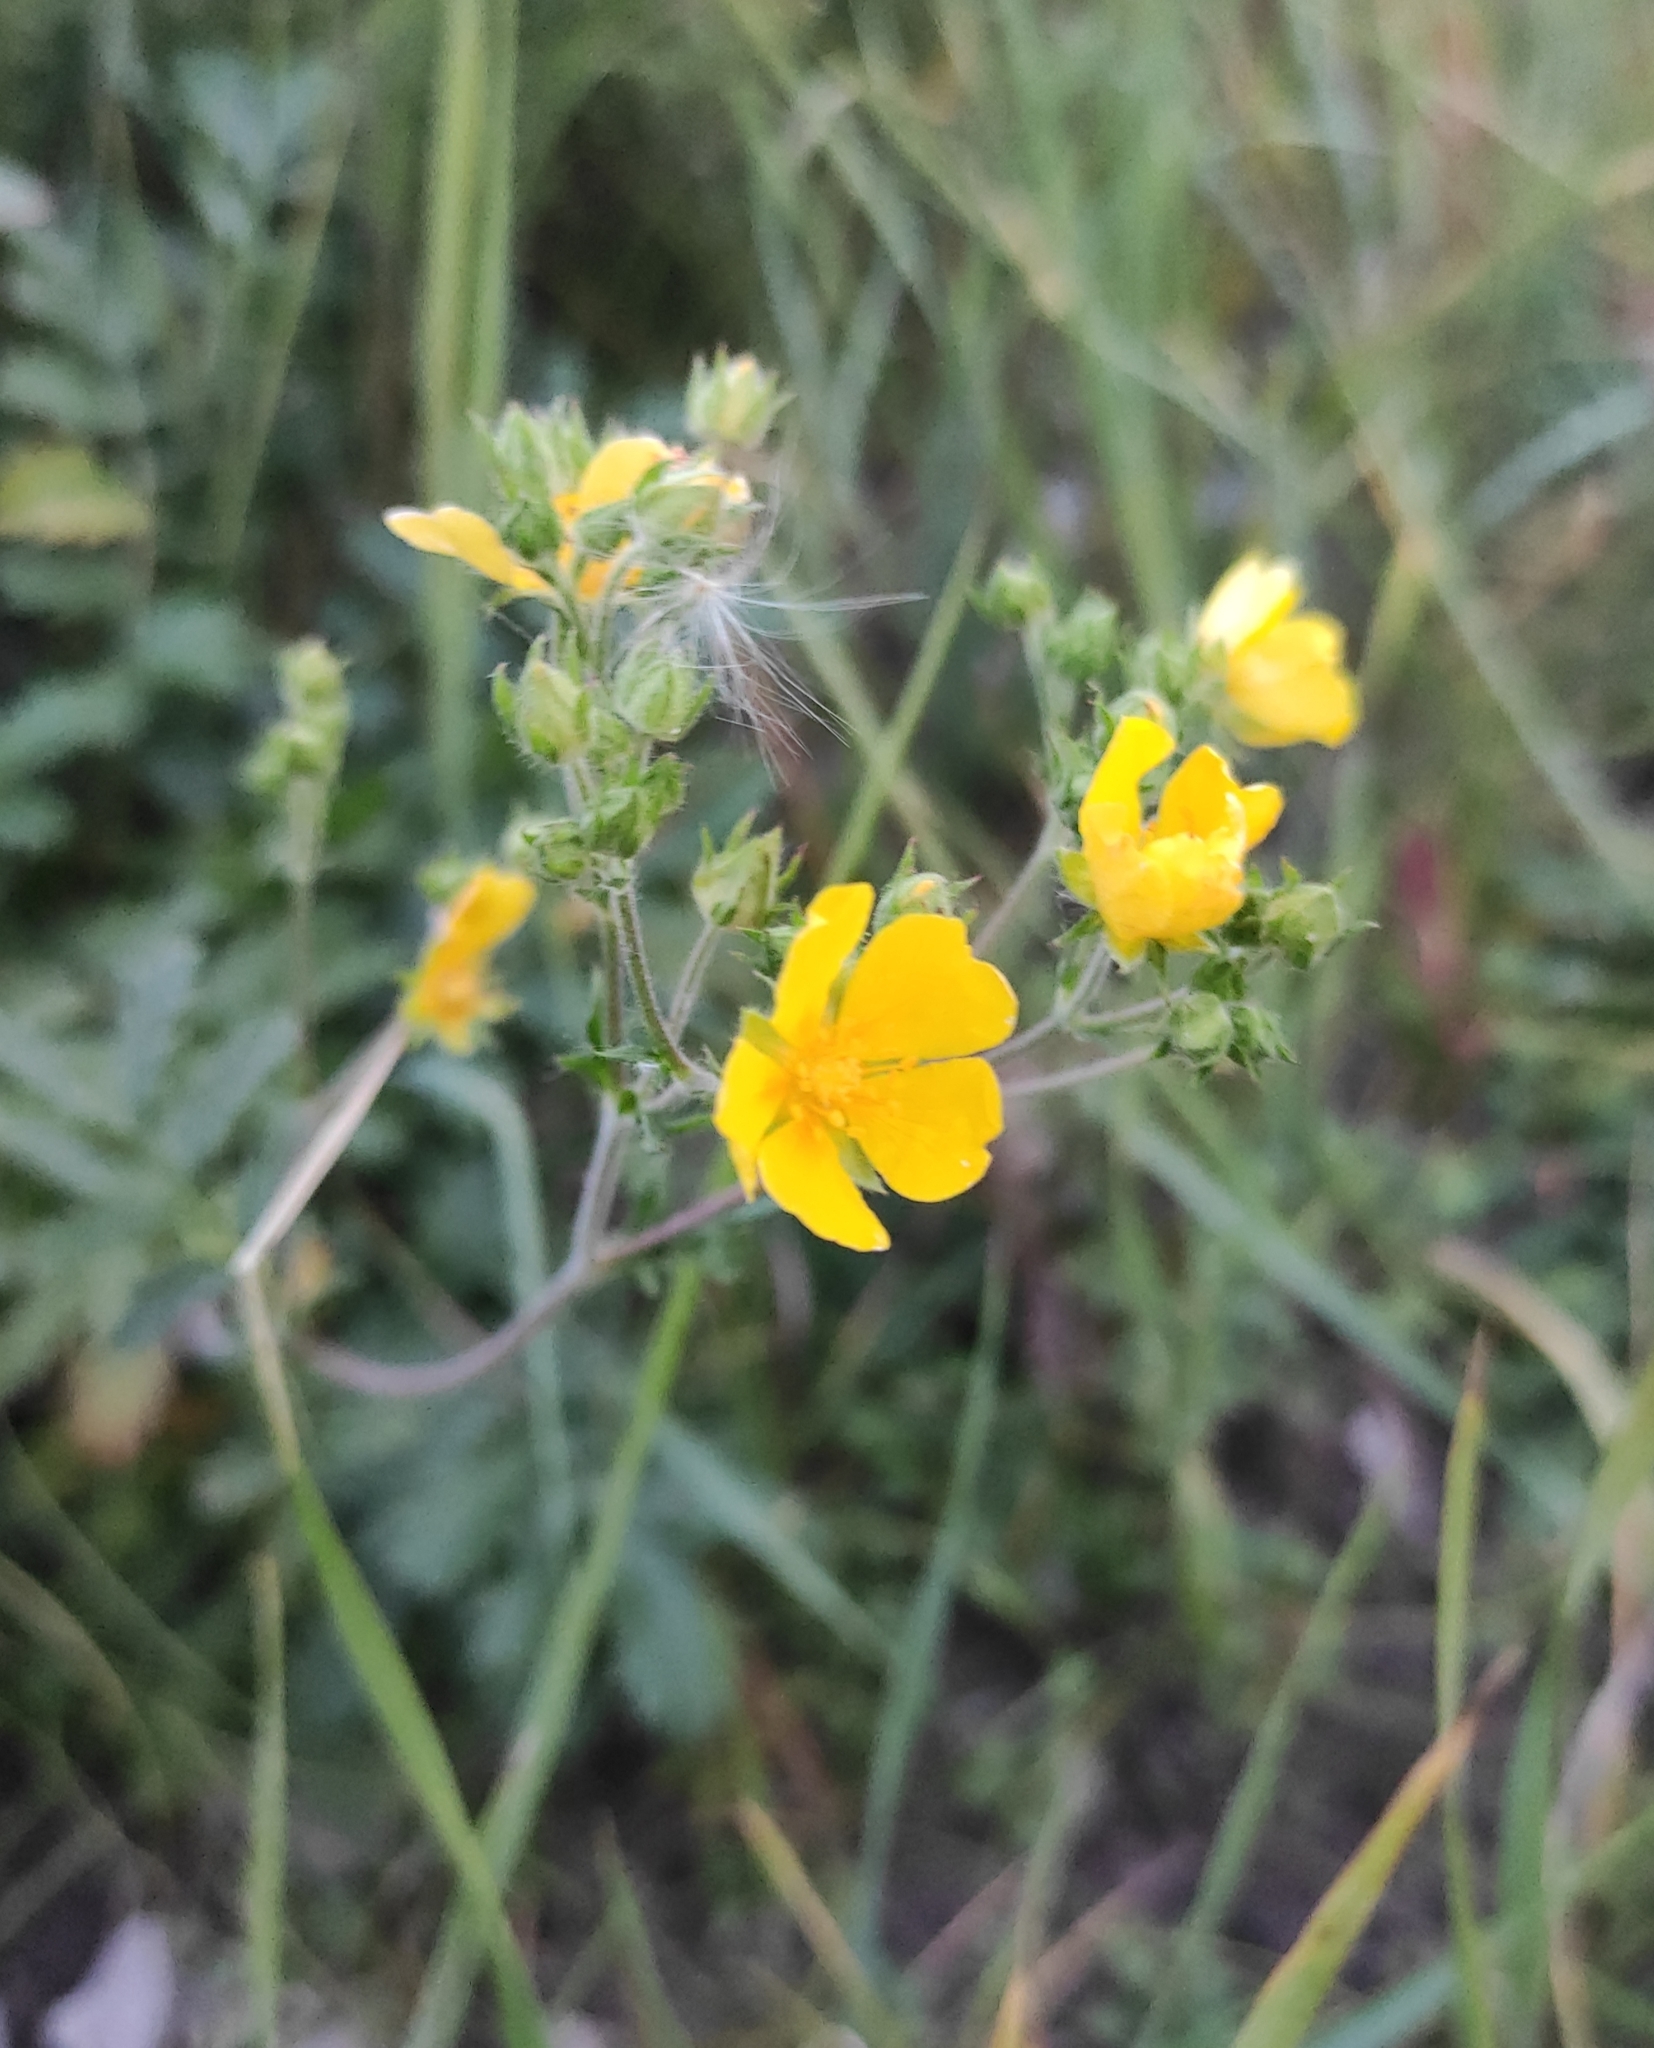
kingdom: Plantae
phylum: Tracheophyta
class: Magnoliopsida
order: Rosales
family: Rosaceae
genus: Potentilla
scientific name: Potentilla tanacetifolia
